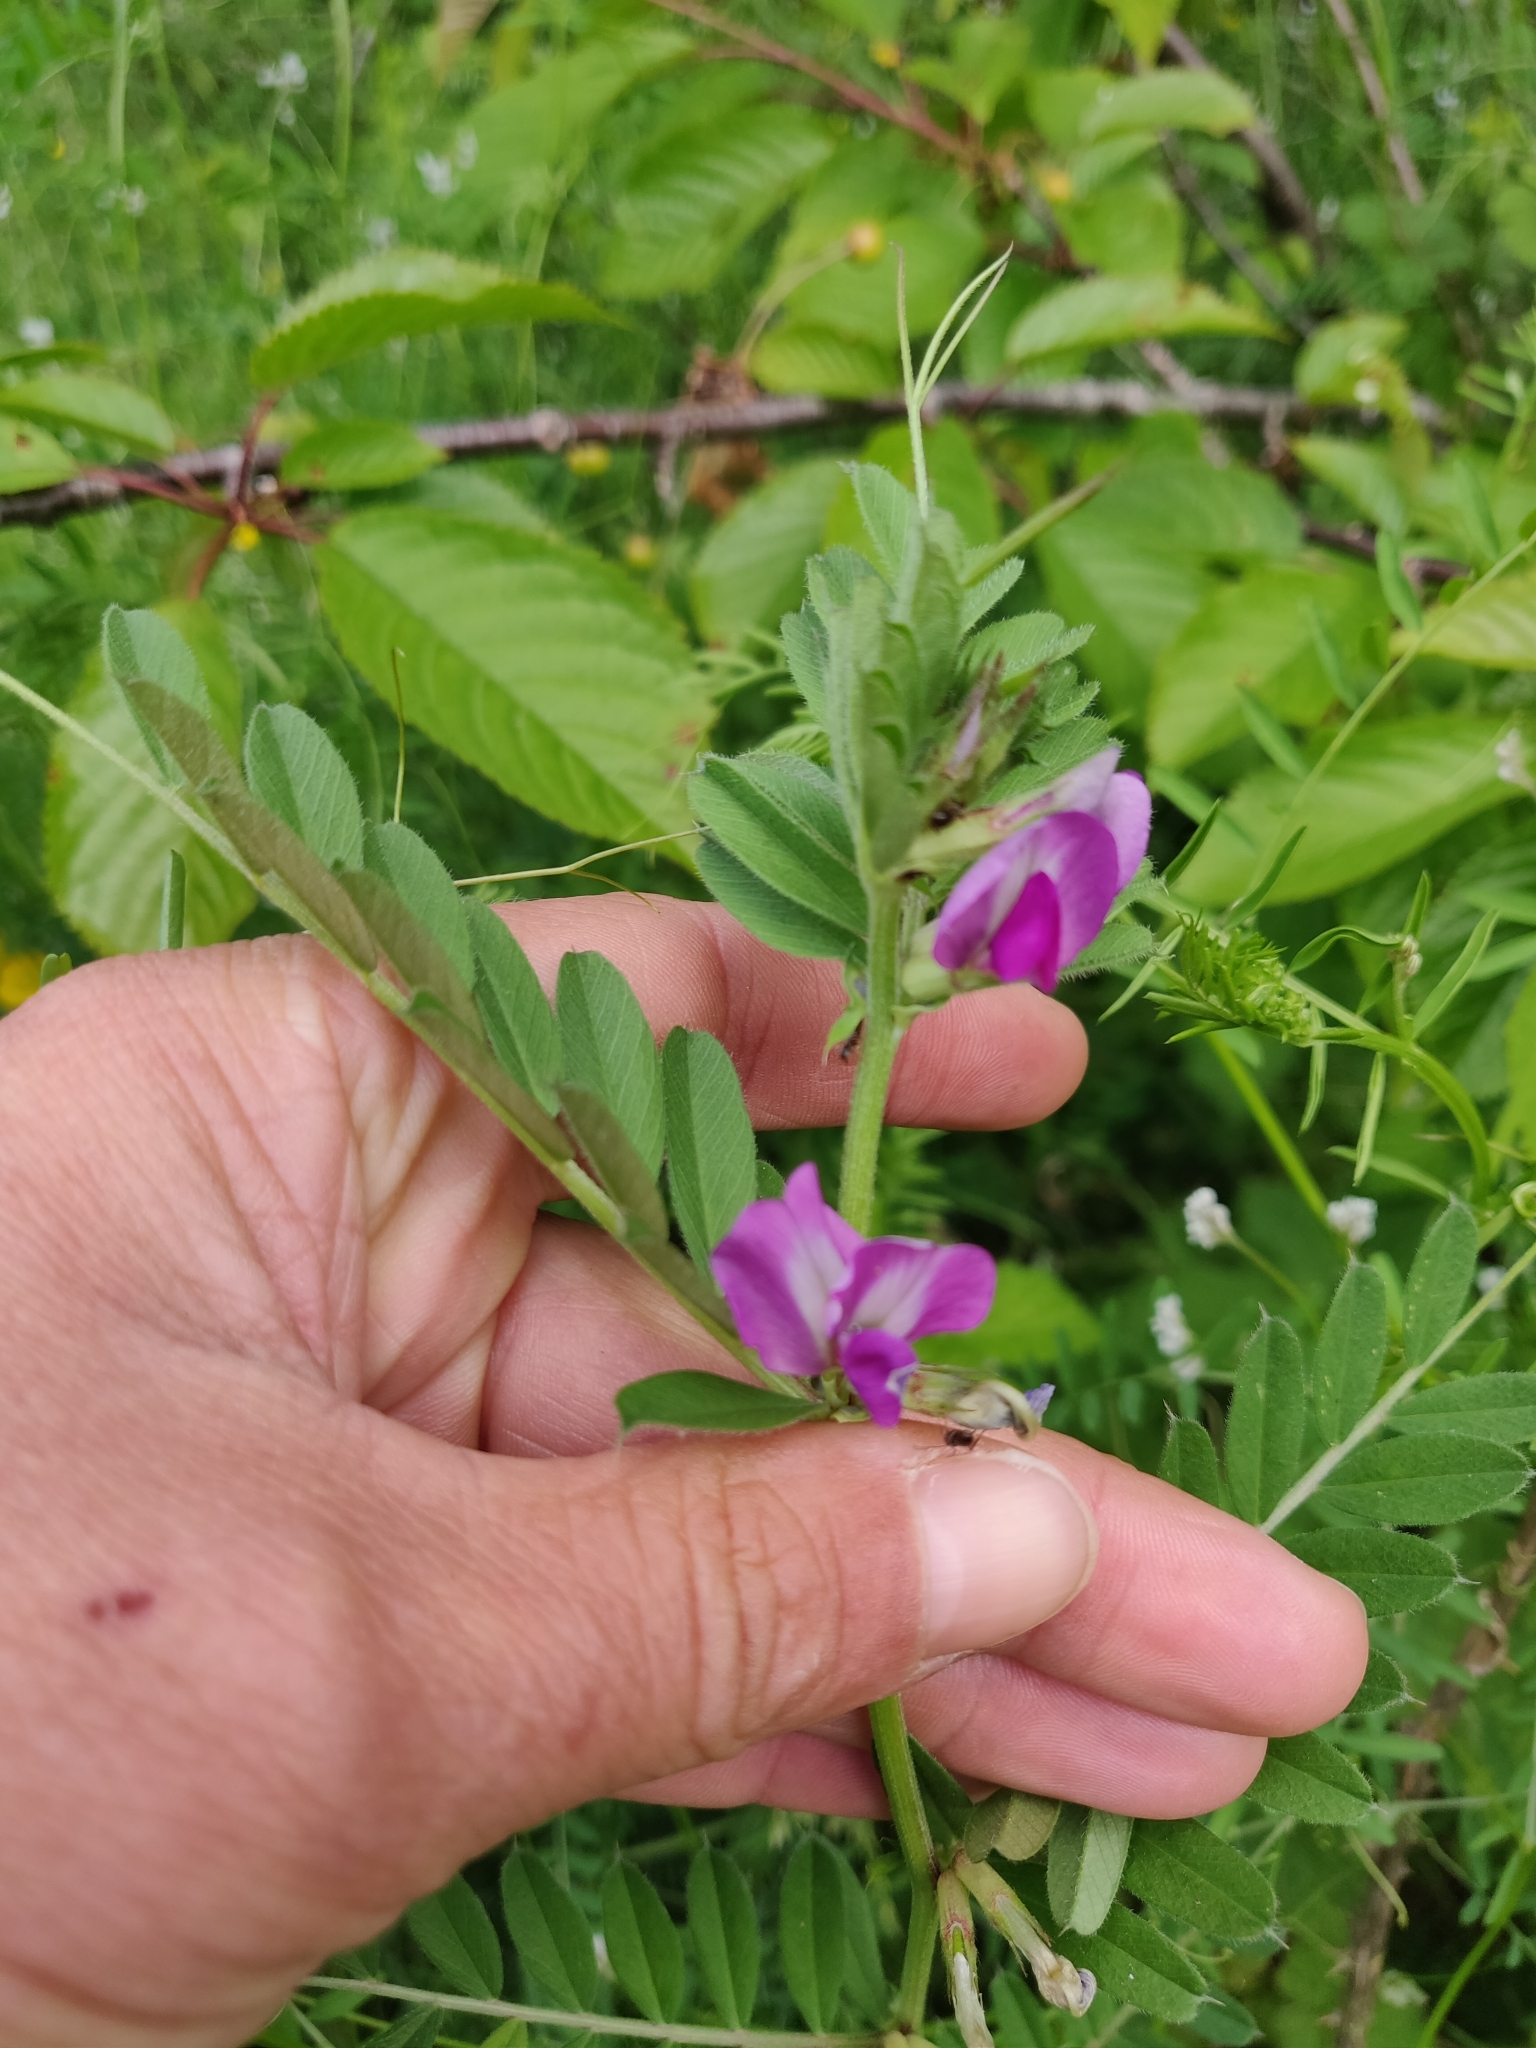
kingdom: Plantae
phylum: Tracheophyta
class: Magnoliopsida
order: Fabales
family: Fabaceae
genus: Vicia
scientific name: Vicia sativa
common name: Garden vetch
